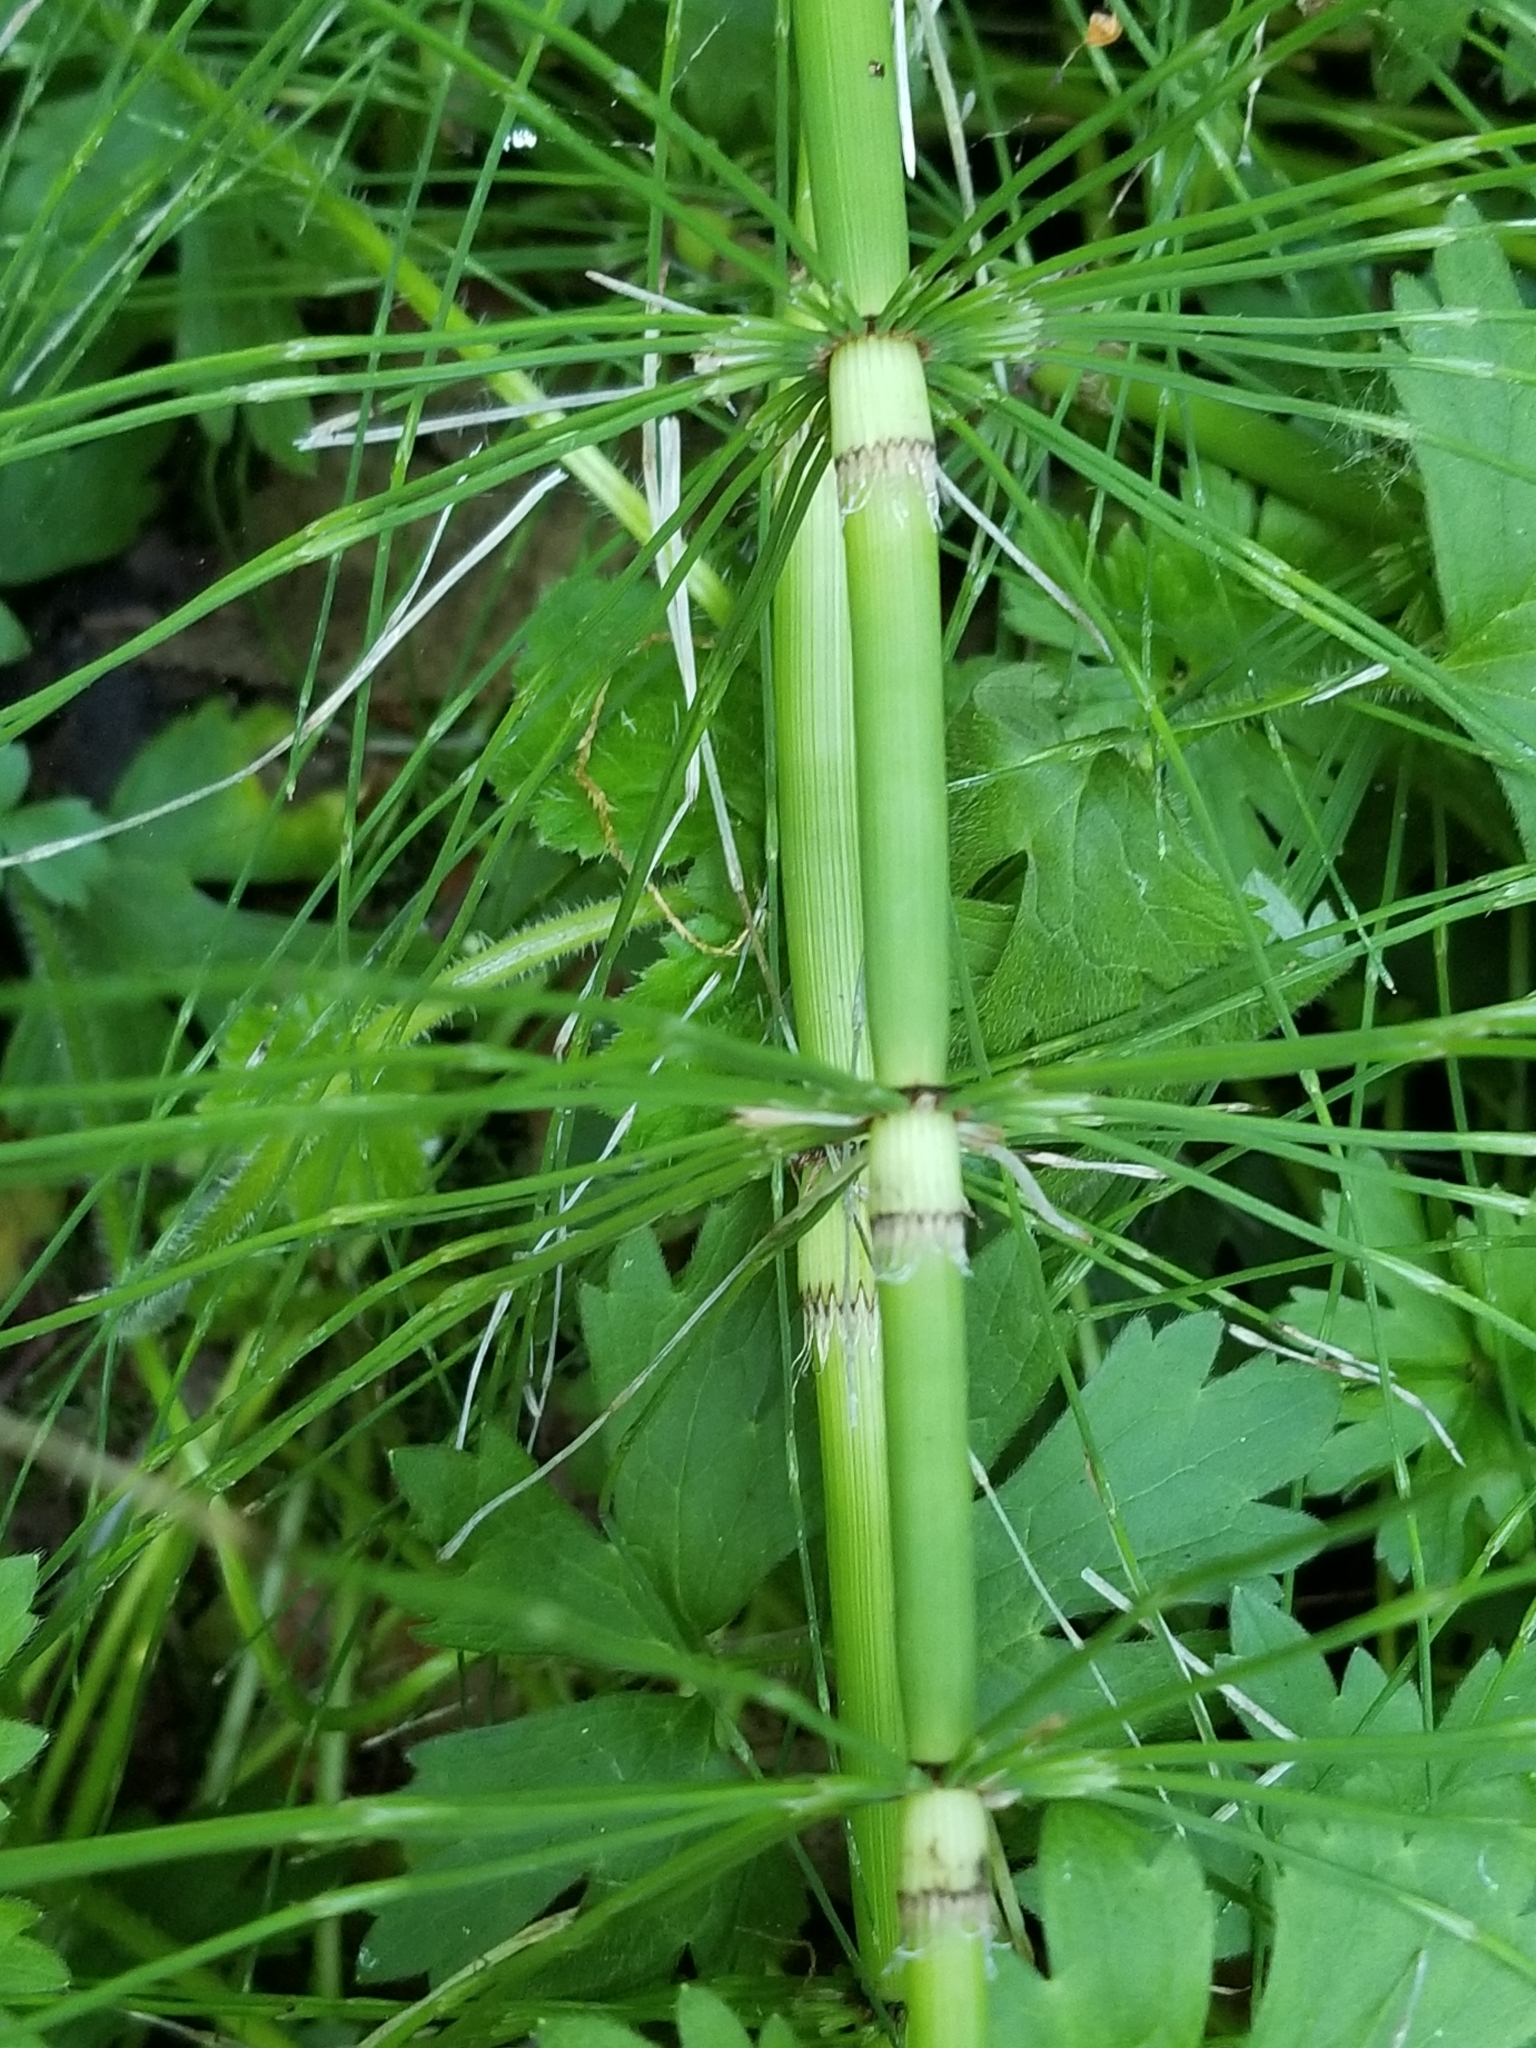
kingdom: Plantae
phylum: Tracheophyta
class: Polypodiopsida
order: Equisetales
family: Equisetaceae
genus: Equisetum
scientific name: Equisetum telmateia
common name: Great horsetail
